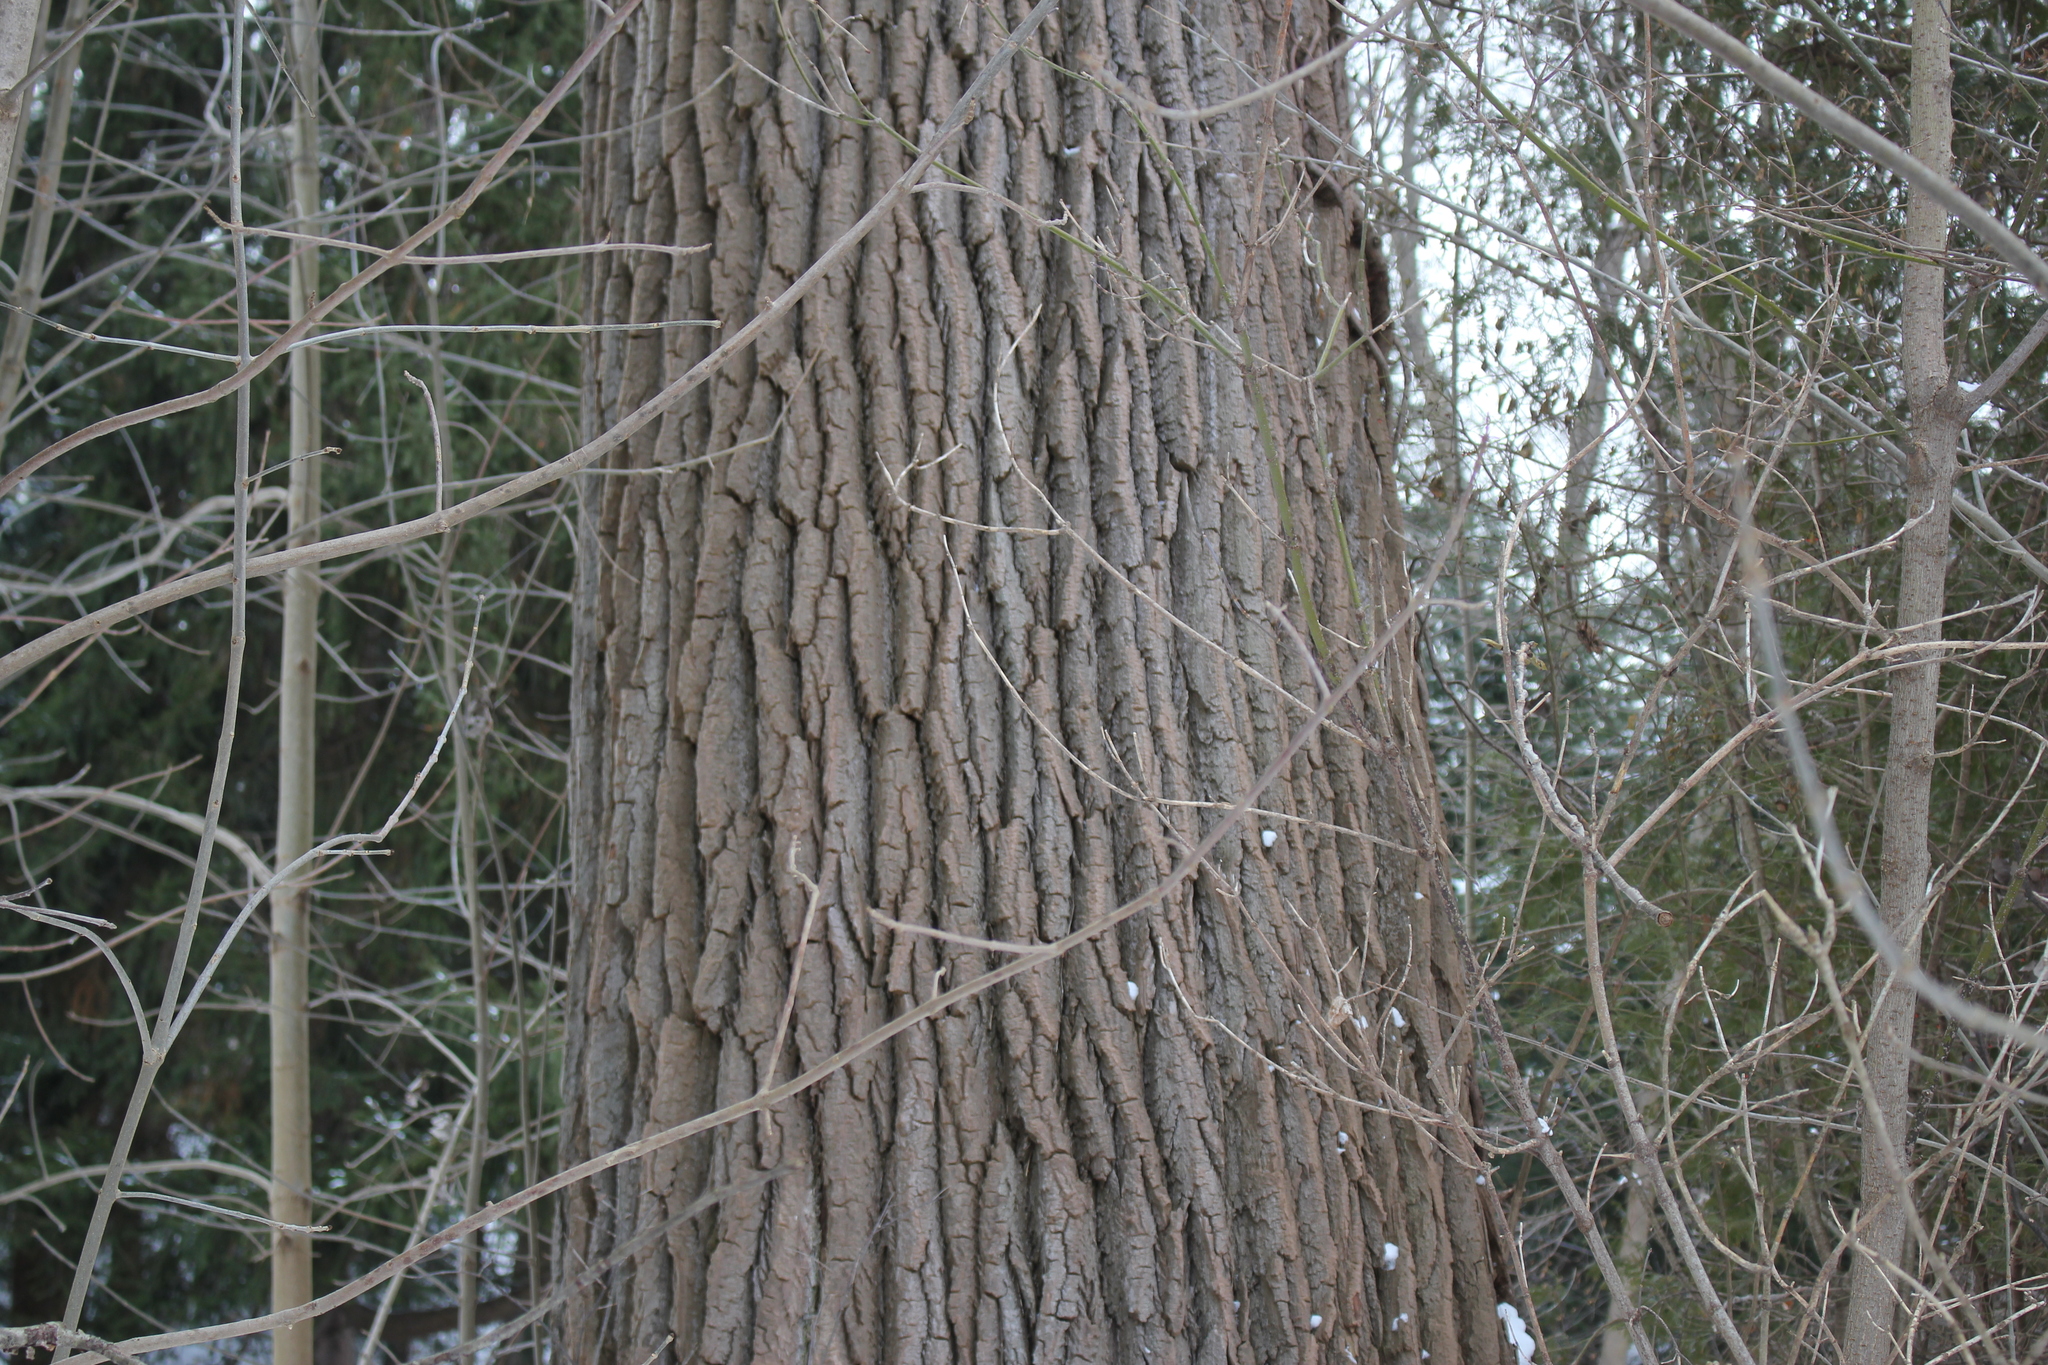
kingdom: Plantae
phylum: Tracheophyta
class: Magnoliopsida
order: Malpighiales
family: Salicaceae
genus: Populus
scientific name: Populus deltoides
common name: Eastern cottonwood
